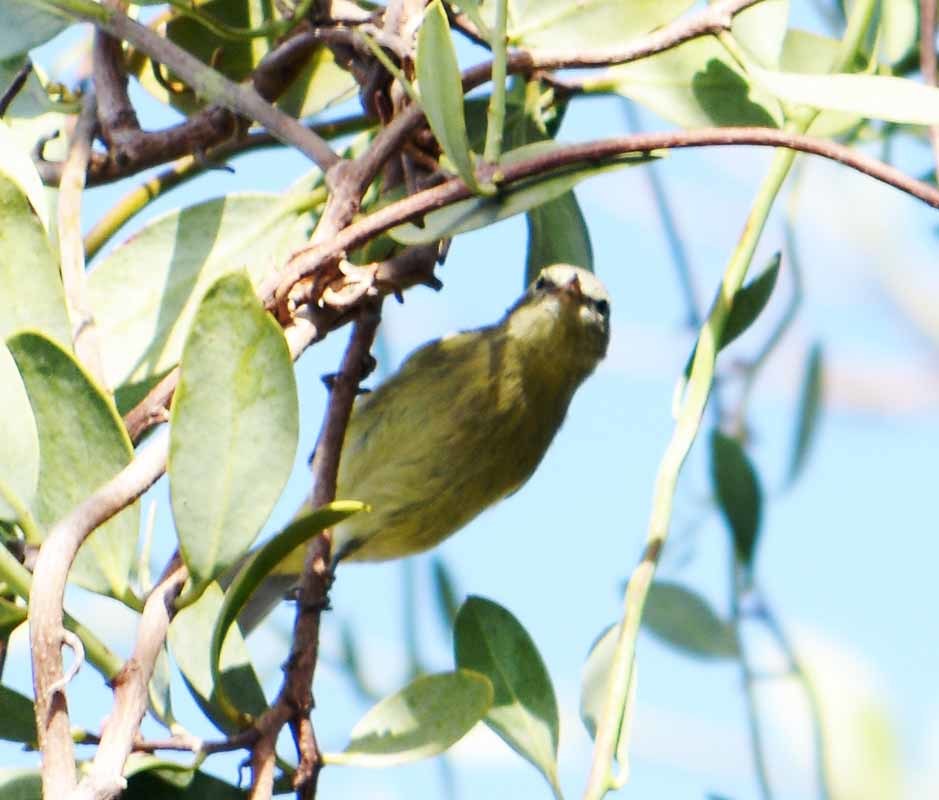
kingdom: Animalia
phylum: Chordata
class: Aves
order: Passeriformes
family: Parulidae
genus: Leiothlypis
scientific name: Leiothlypis celata
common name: Orange-crowned warbler
